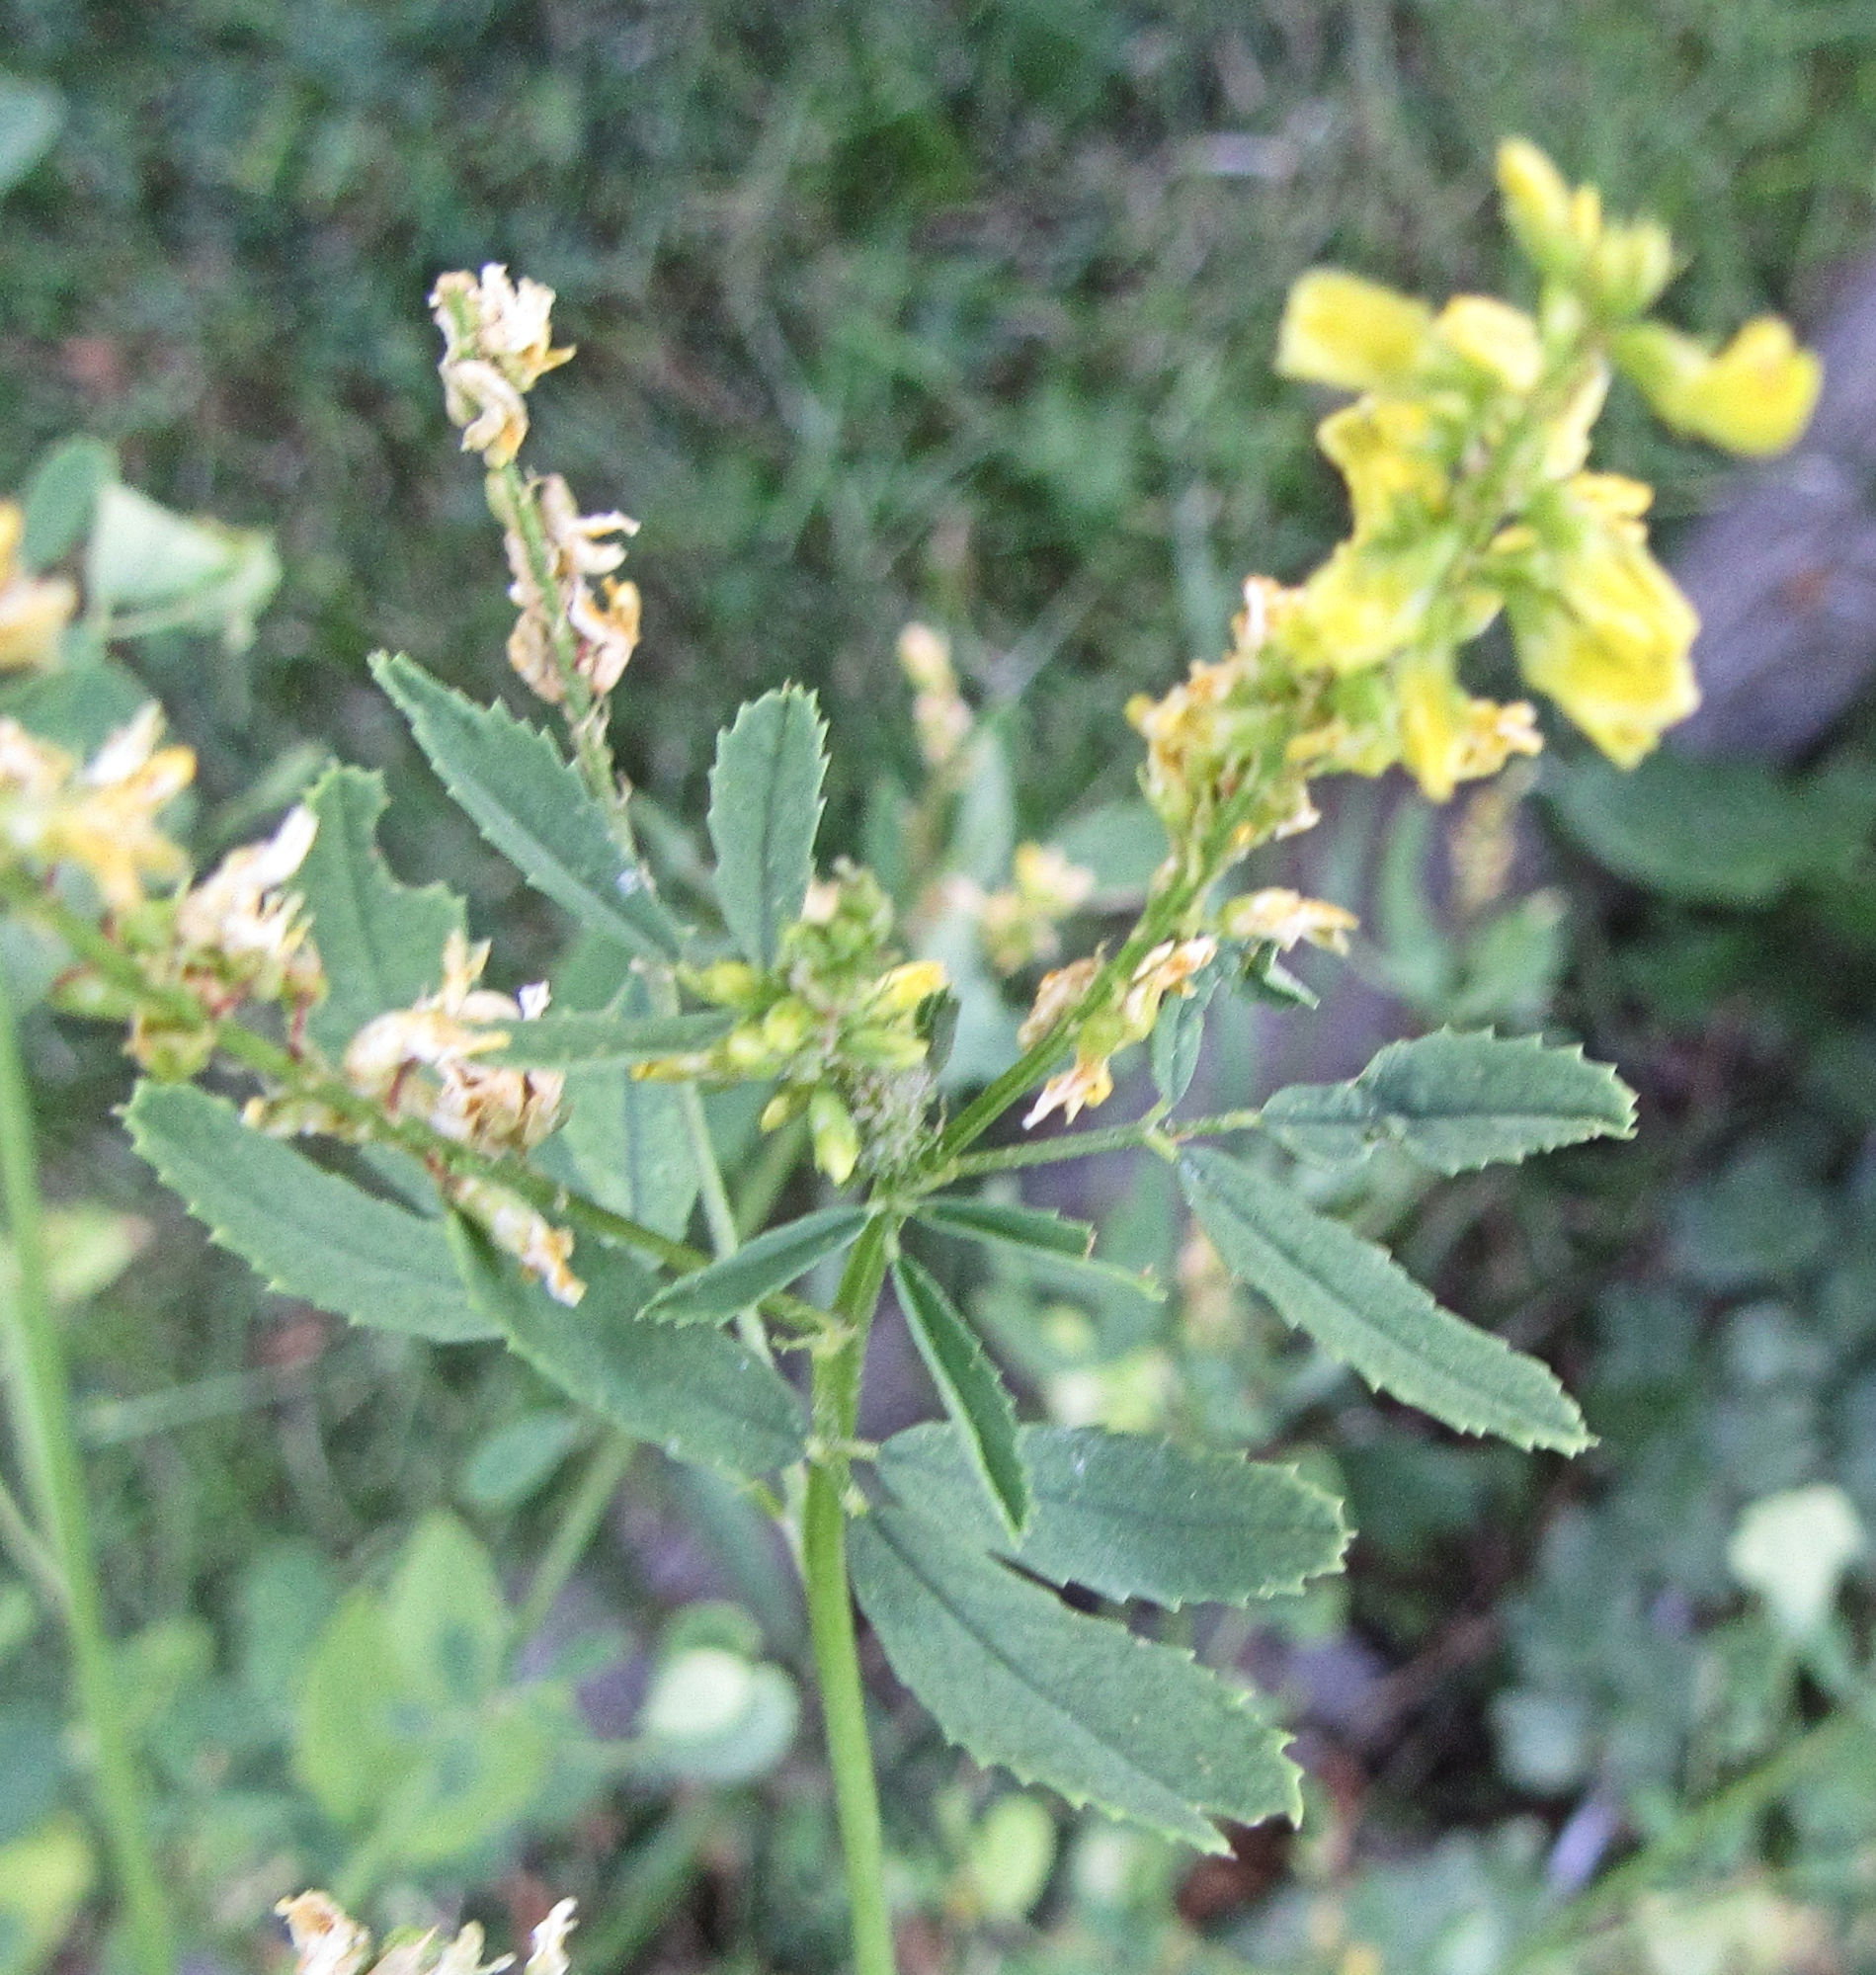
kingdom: Plantae
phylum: Tracheophyta
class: Magnoliopsida
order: Fabales
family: Fabaceae
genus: Melilotus
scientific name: Melilotus officinalis
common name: Sweetclover
